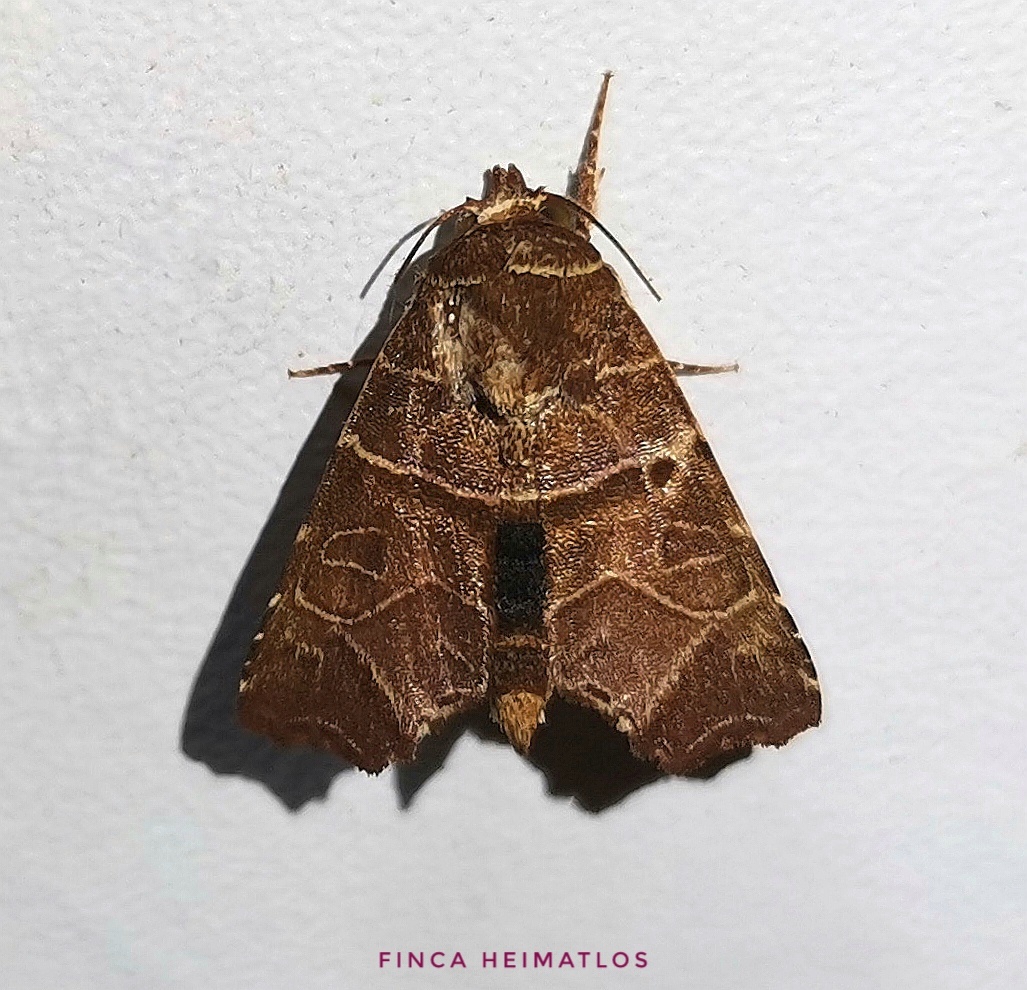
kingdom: Animalia
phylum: Arthropoda
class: Insecta
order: Lepidoptera
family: Noctuidae
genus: Phuphena
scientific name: Phuphena cilix
